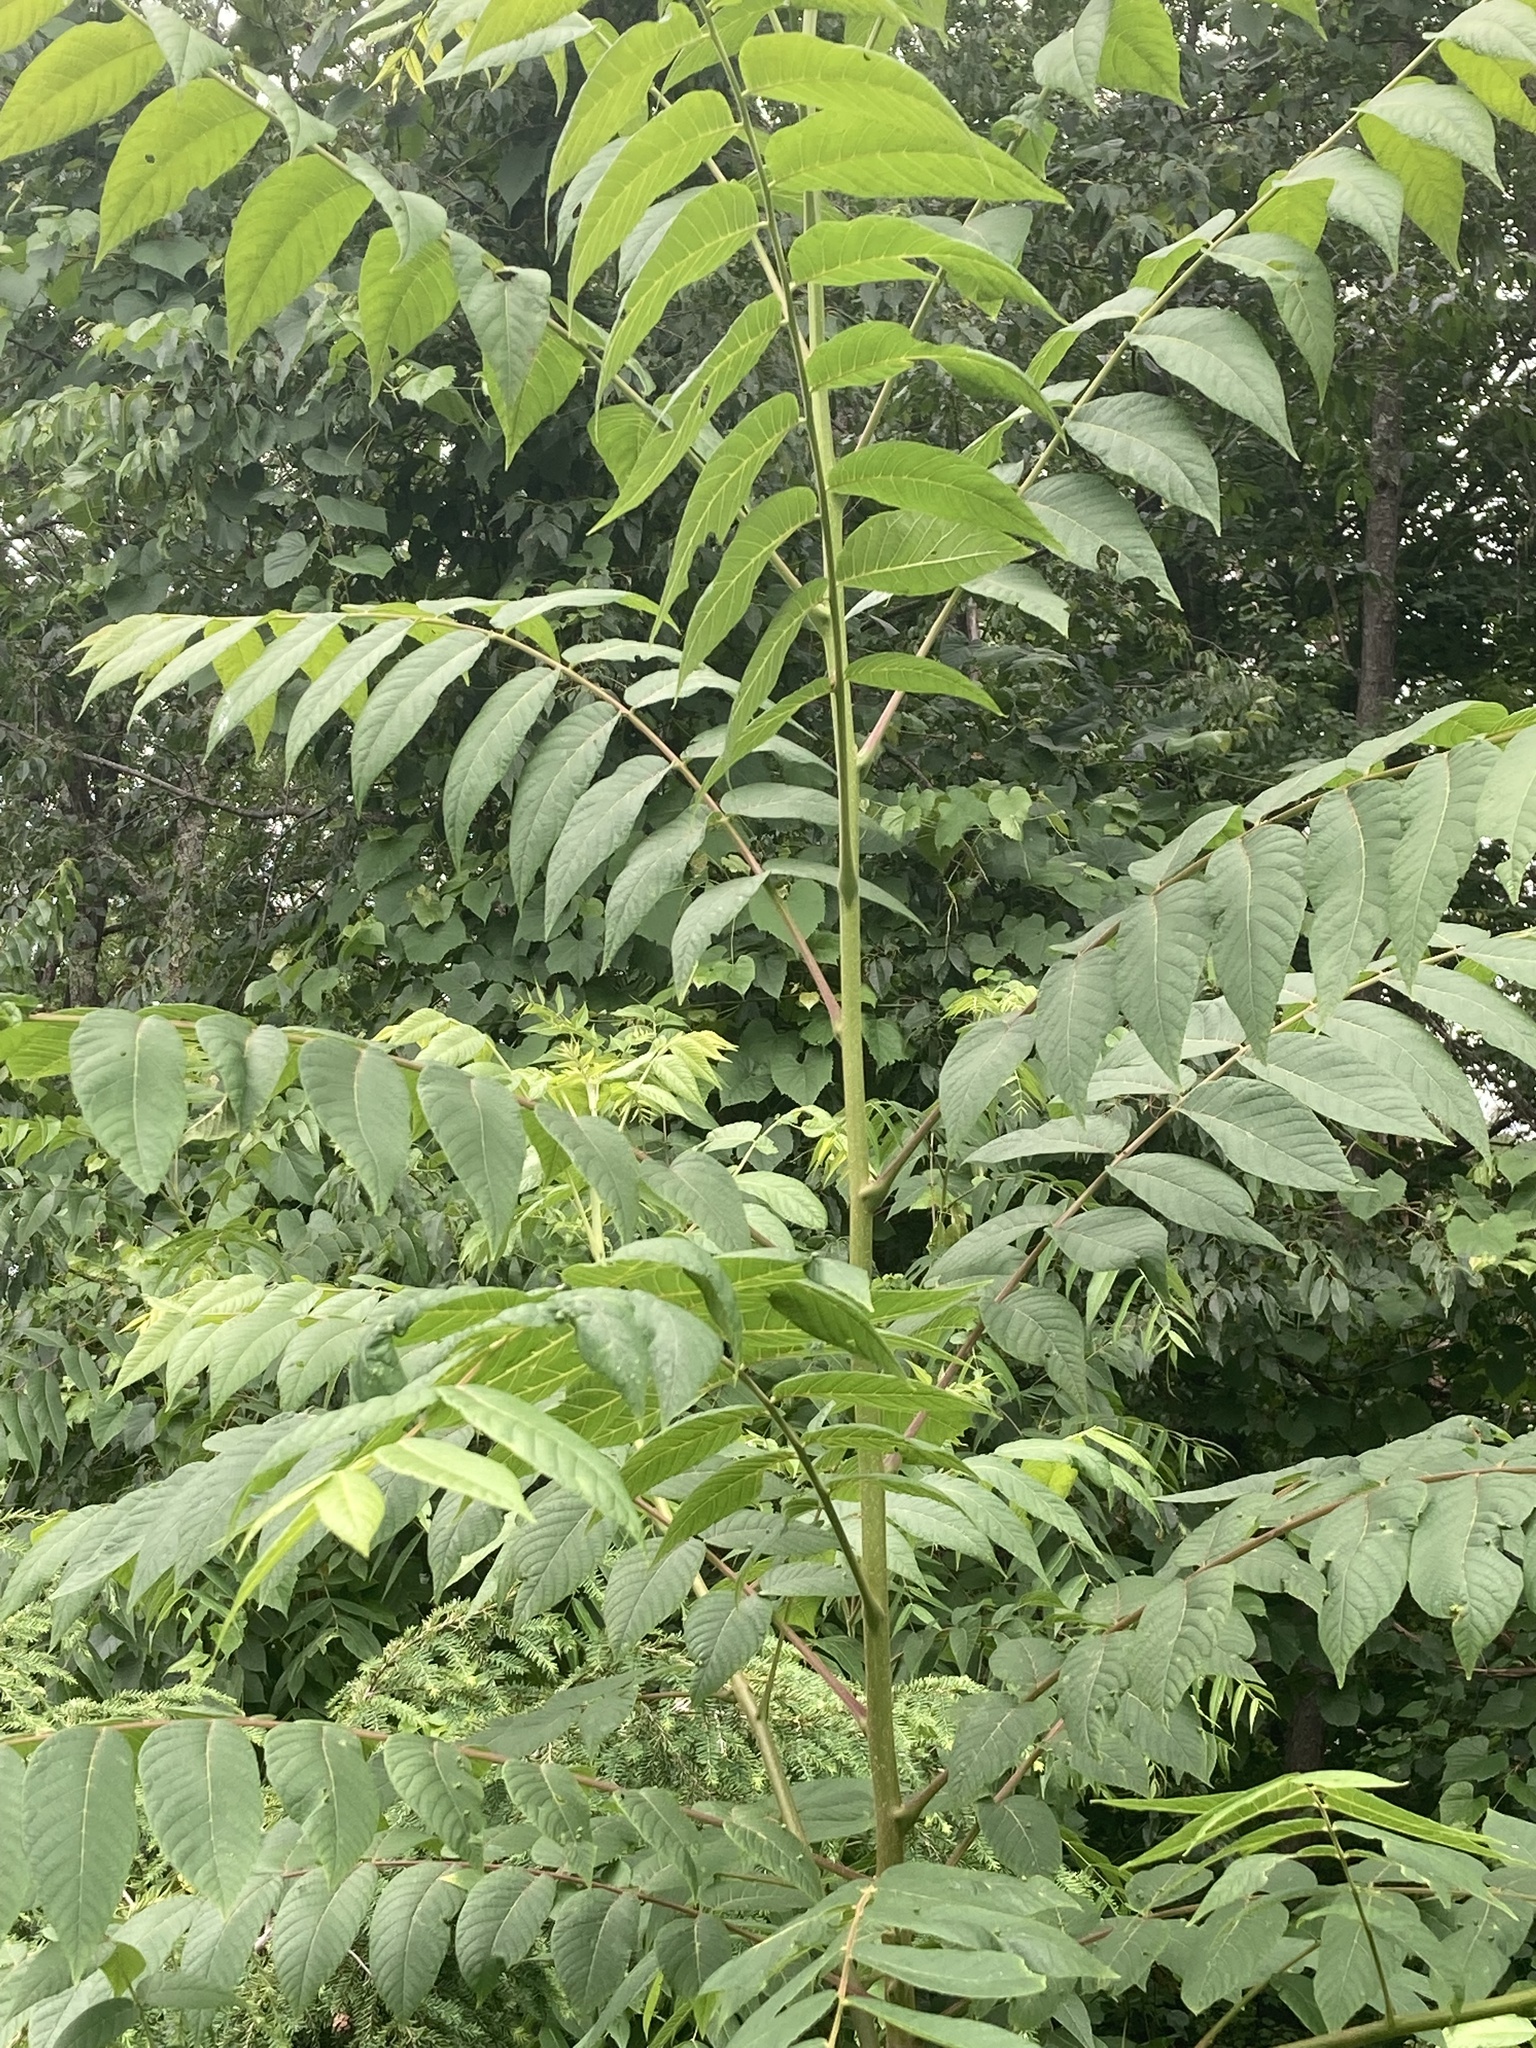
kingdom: Plantae
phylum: Tracheophyta
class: Magnoliopsida
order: Sapindales
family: Simaroubaceae
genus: Ailanthus
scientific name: Ailanthus altissima
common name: Tree-of-heaven
